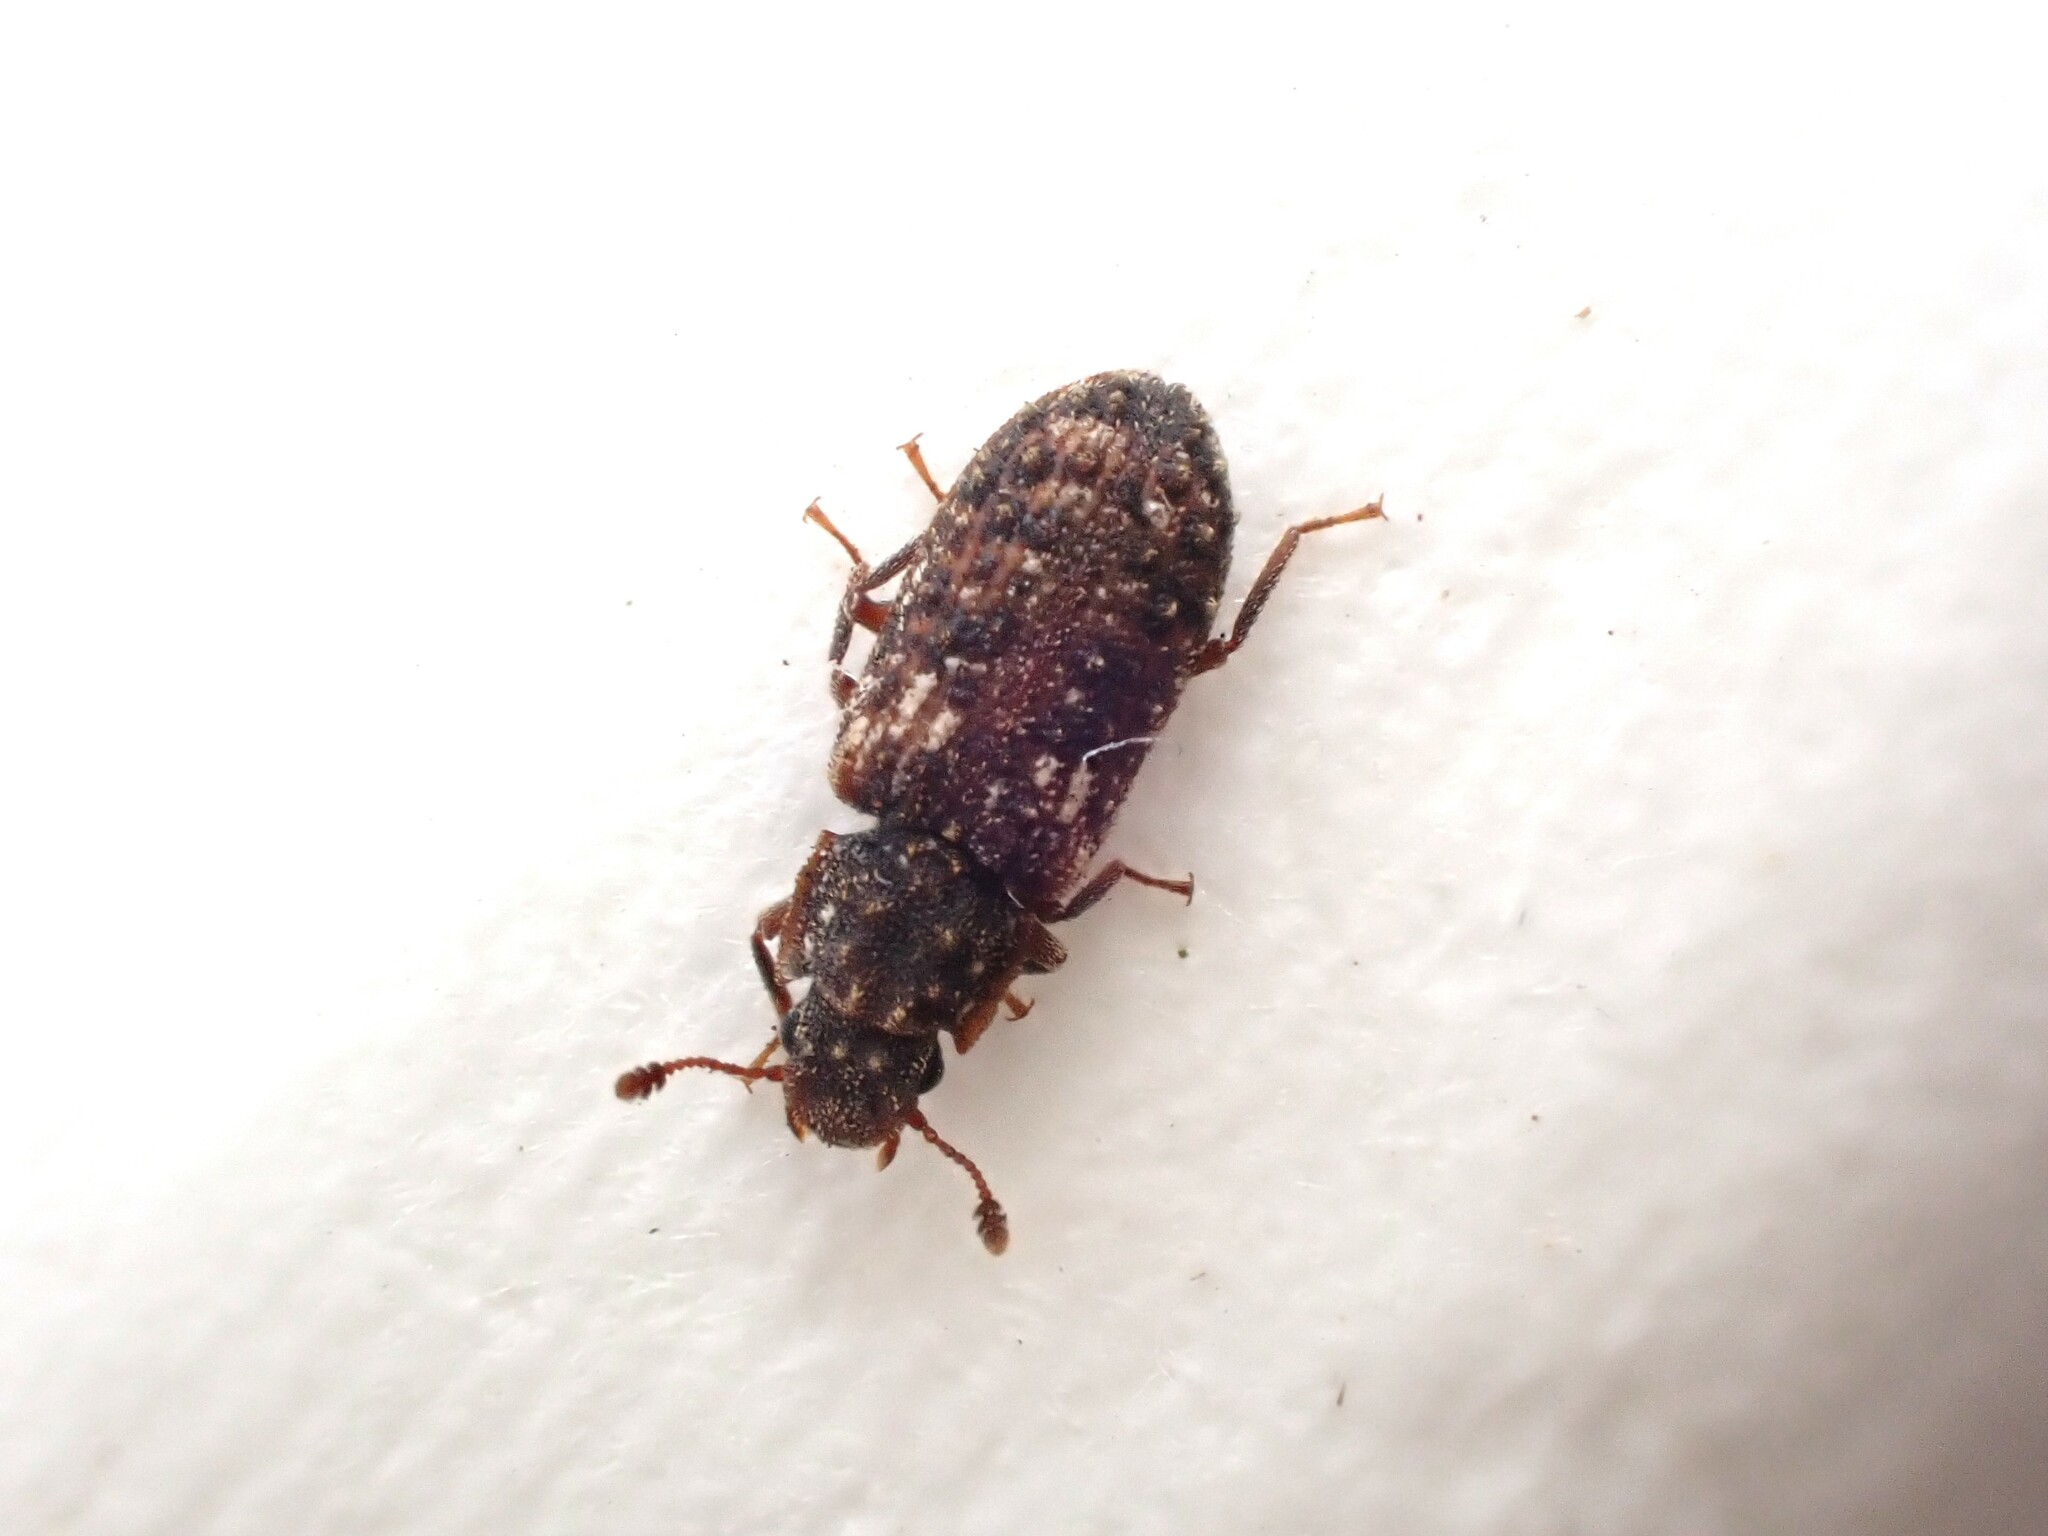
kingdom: Animalia
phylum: Arthropoda
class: Insecta
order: Coleoptera
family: Zopheridae
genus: Pristoderus
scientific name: Pristoderus
